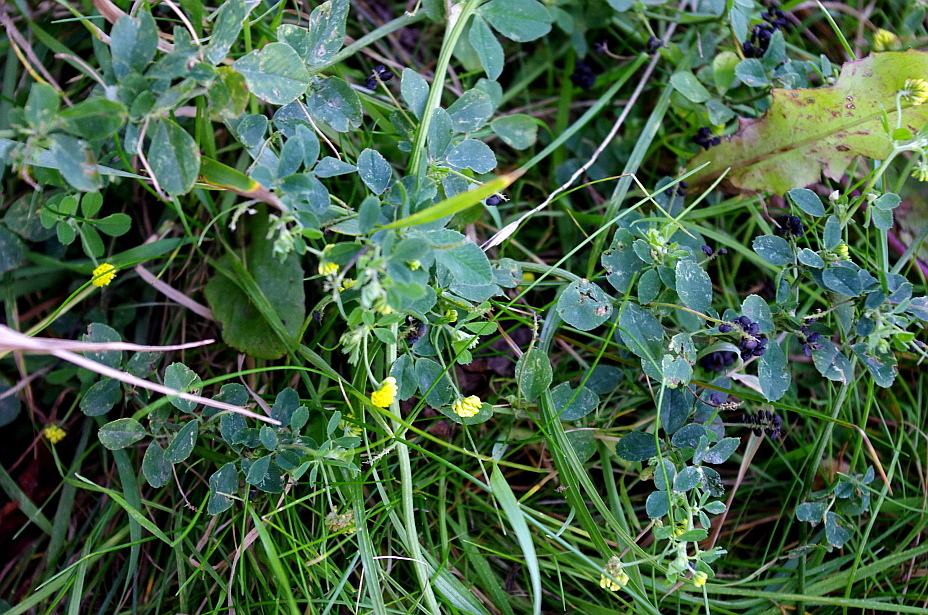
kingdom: Plantae
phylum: Tracheophyta
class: Magnoliopsida
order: Fabales
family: Fabaceae
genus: Medicago
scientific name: Medicago lupulina
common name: Black medick
